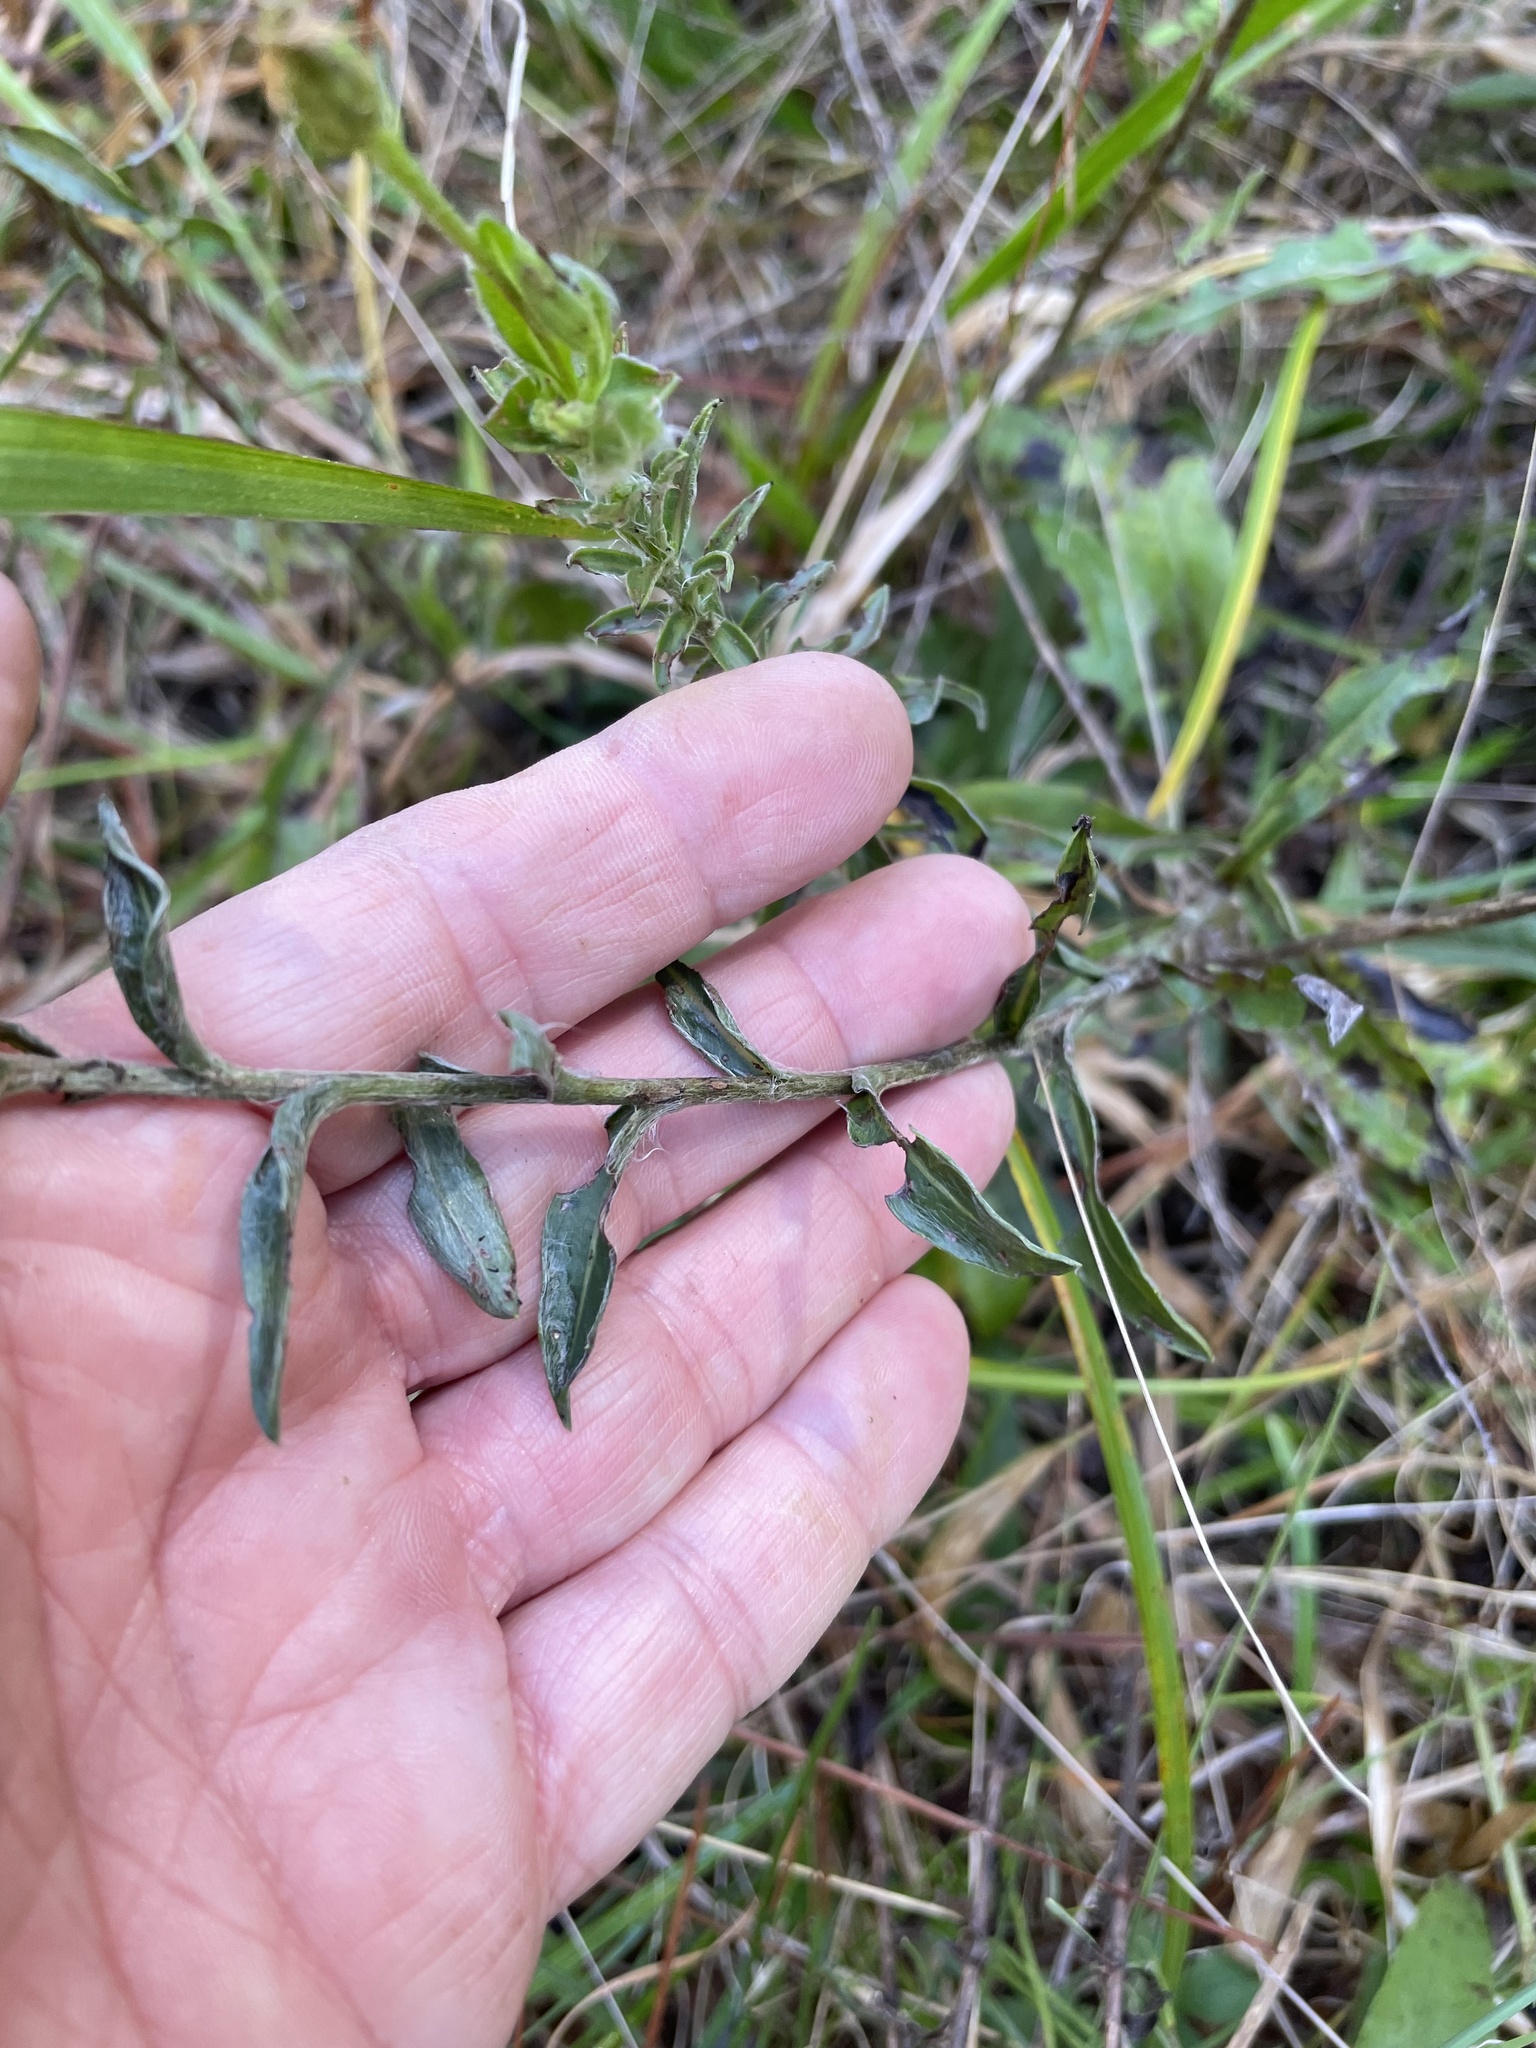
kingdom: Plantae
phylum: Tracheophyta
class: Magnoliopsida
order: Asterales
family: Asteraceae
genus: Chrysopsis
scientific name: Chrysopsis mariana
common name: Maryland golden-aster
